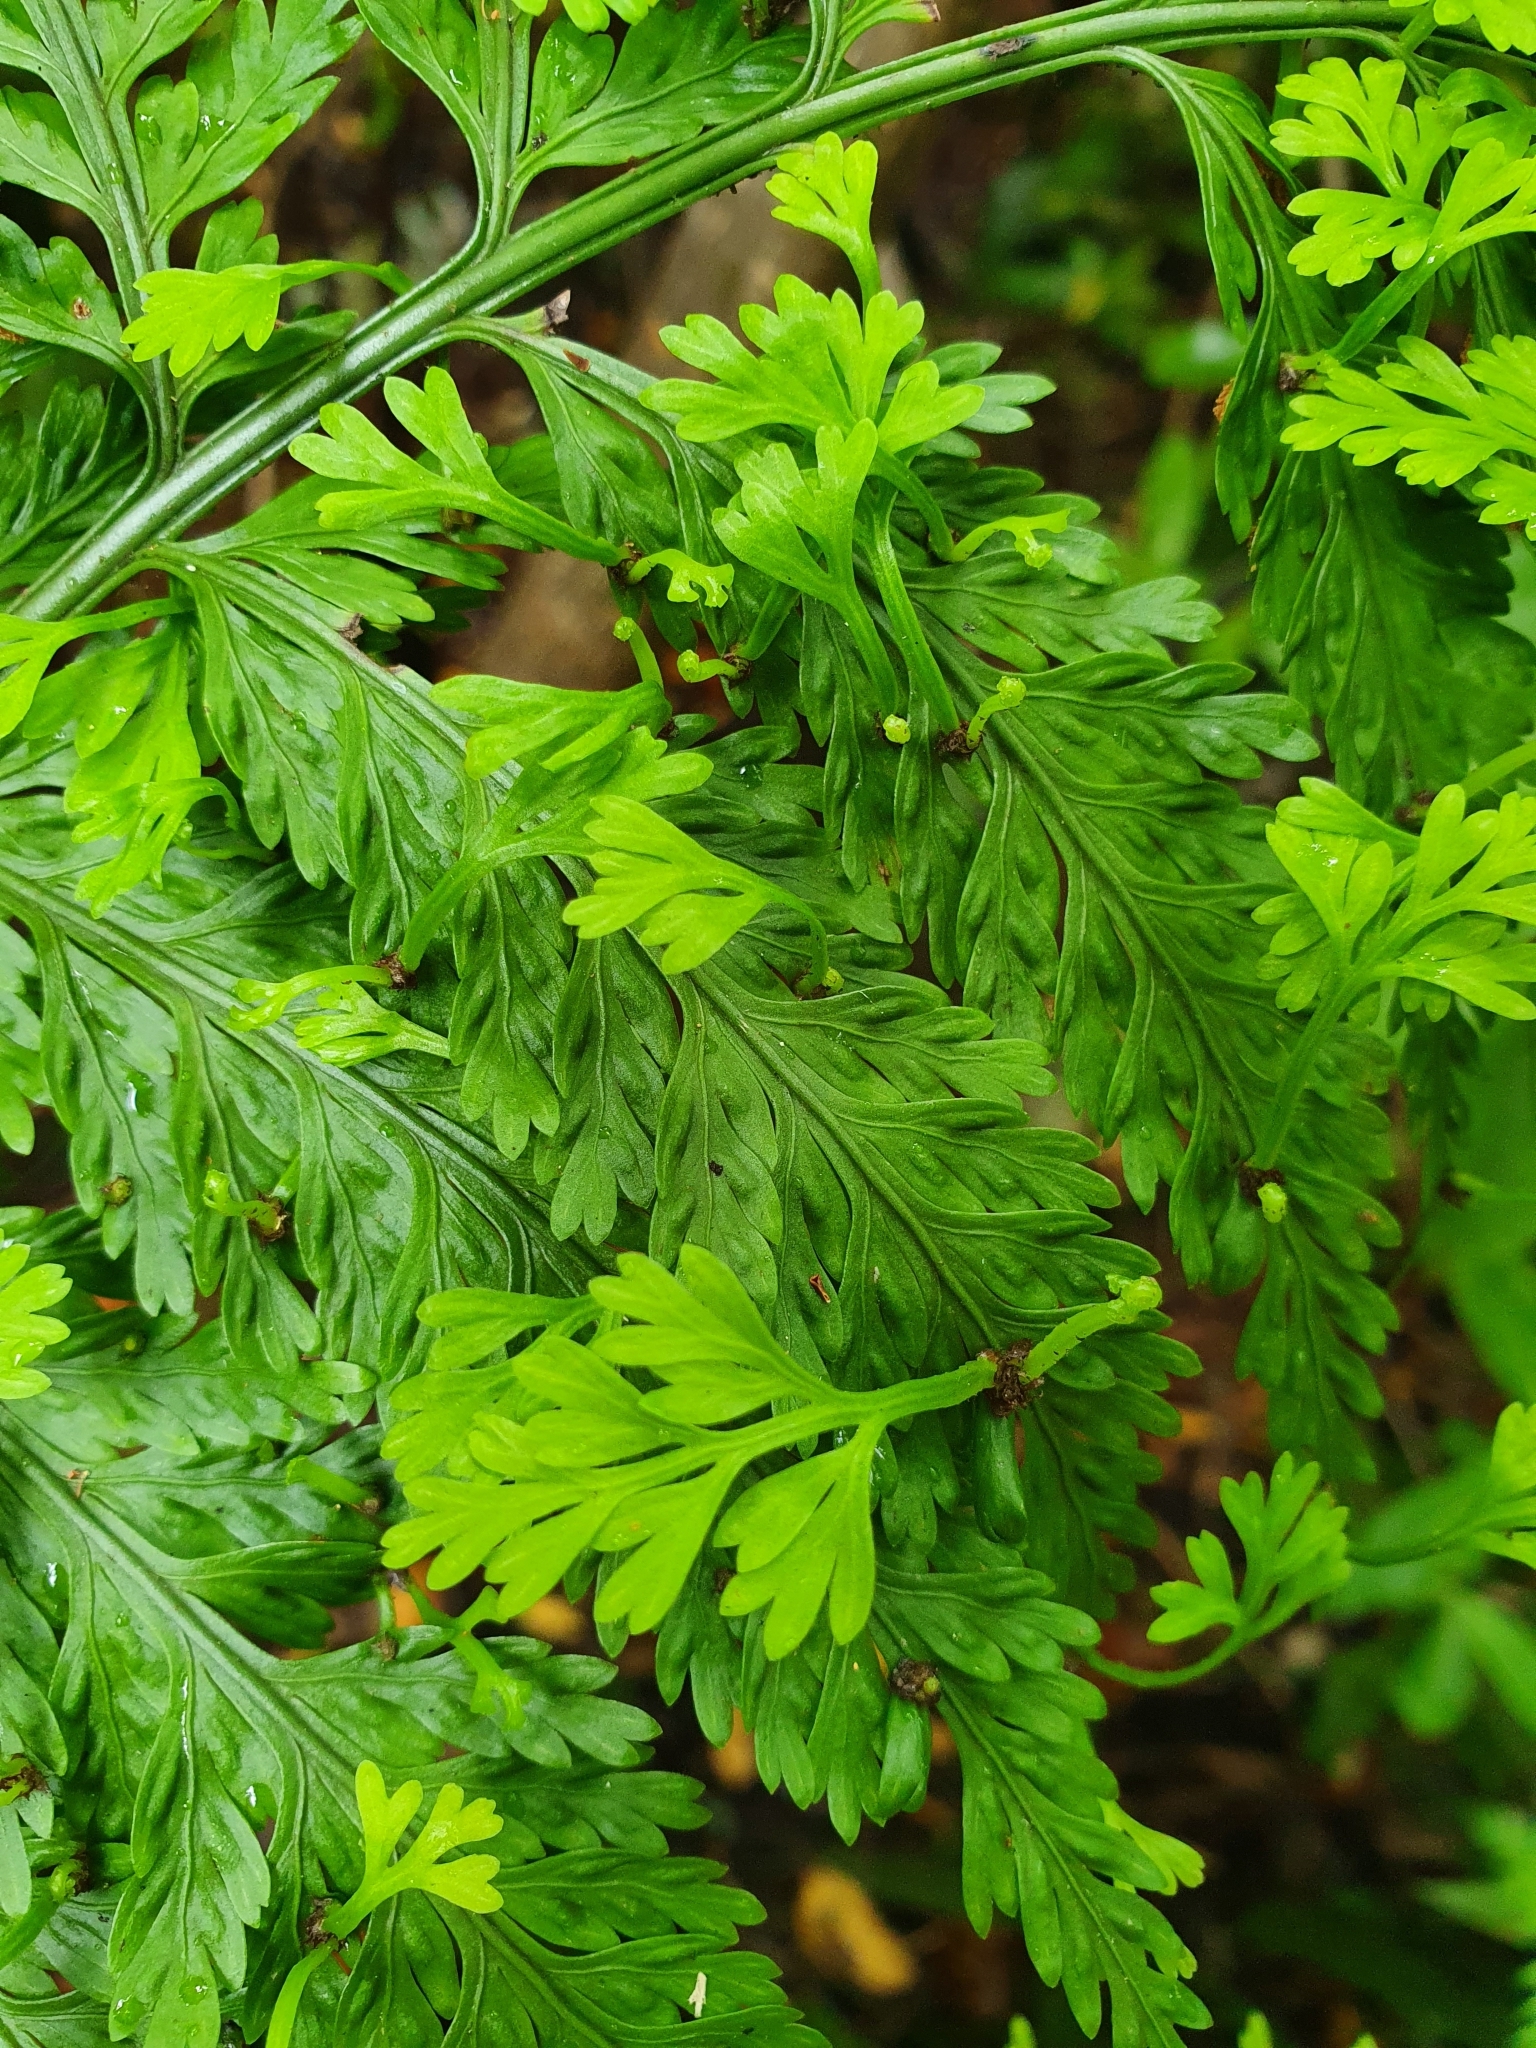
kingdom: Plantae
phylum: Tracheophyta
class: Polypodiopsida
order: Polypodiales
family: Aspleniaceae
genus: Asplenium
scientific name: Asplenium bulbiferum
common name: Mother fern
